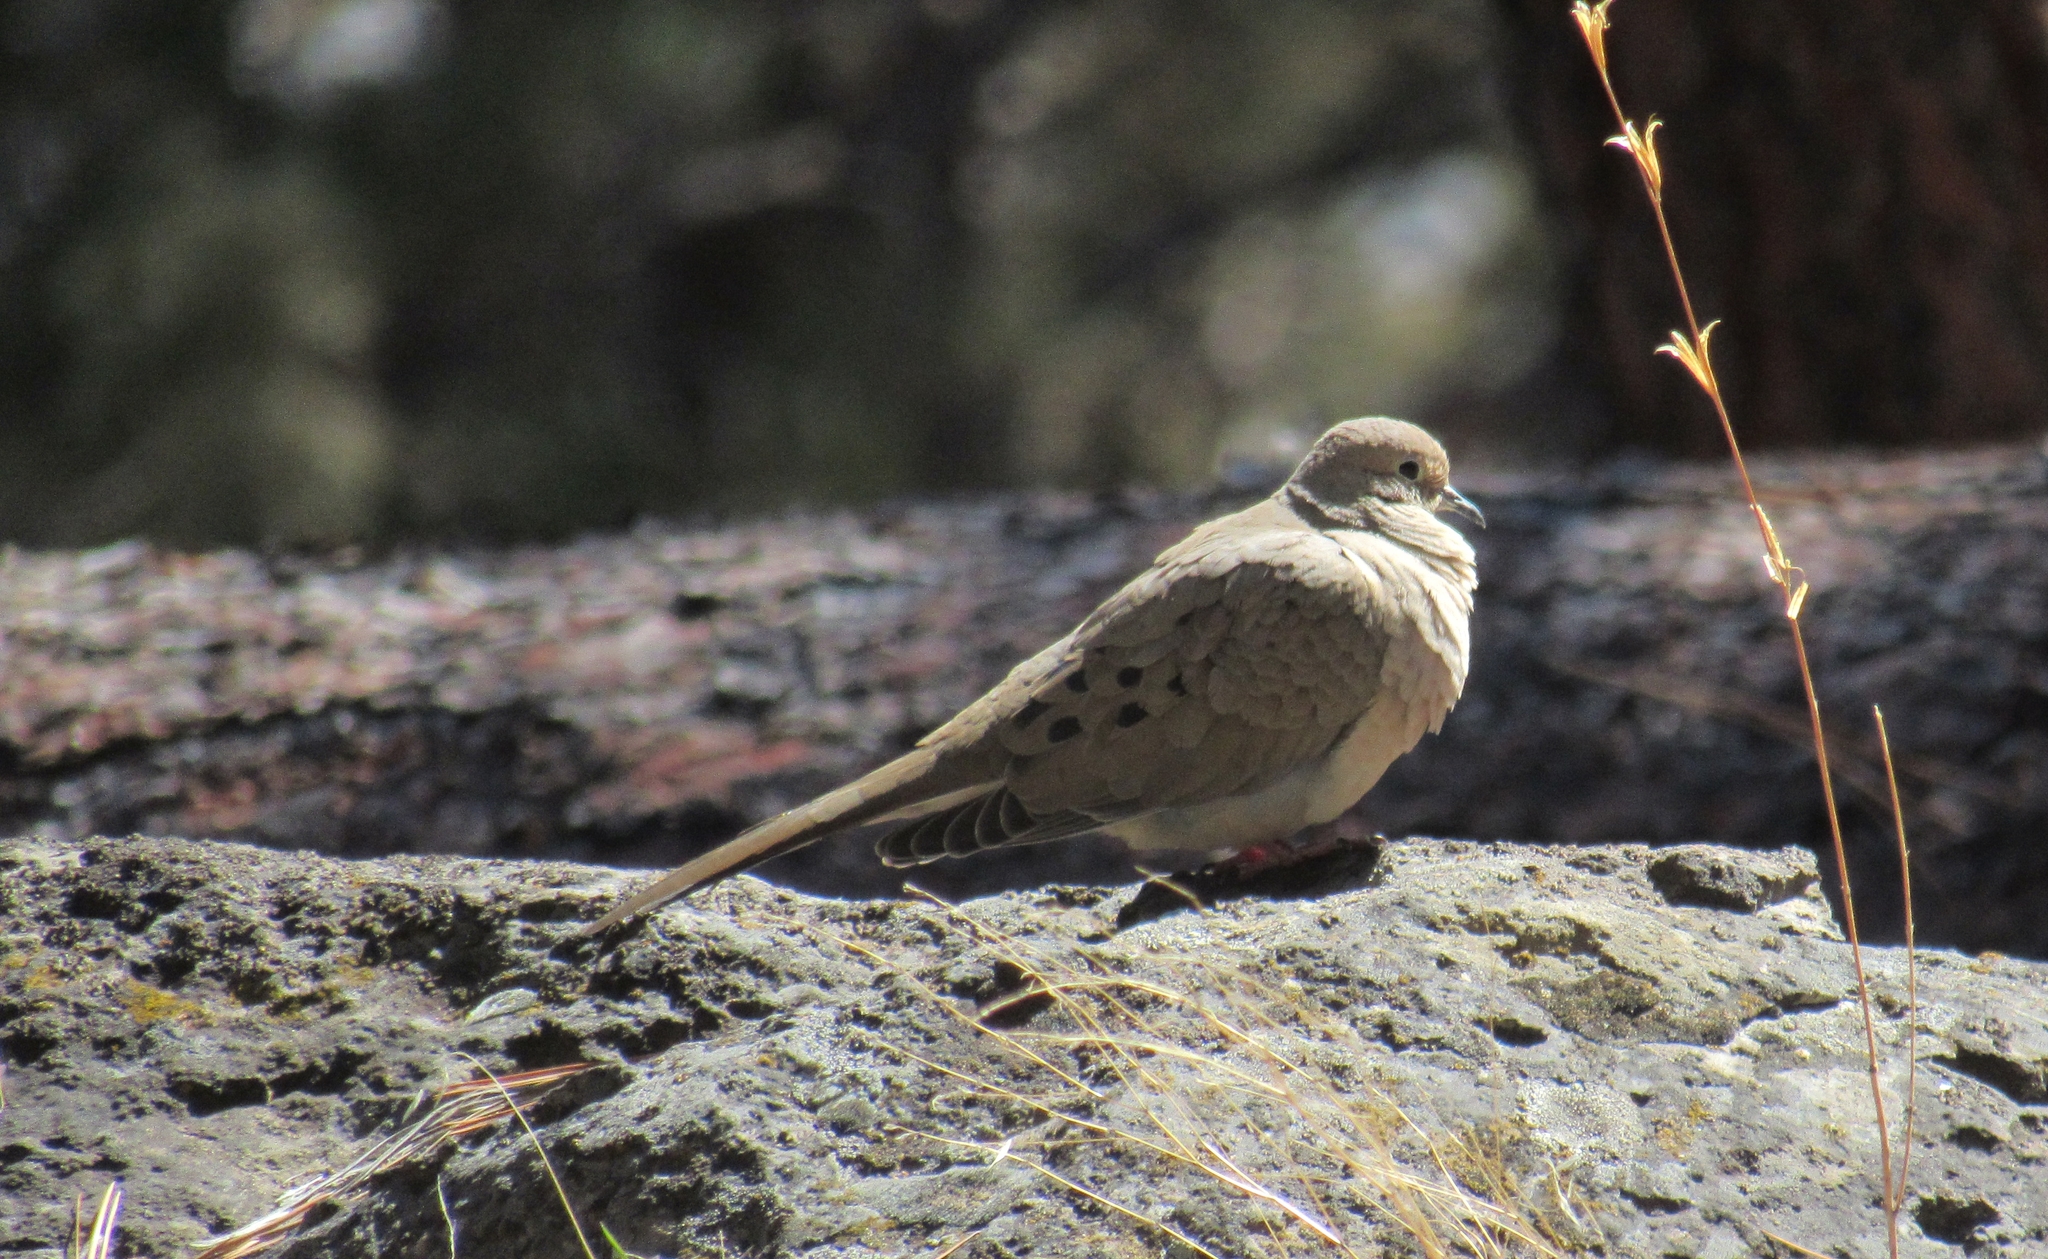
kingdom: Animalia
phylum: Chordata
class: Aves
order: Columbiformes
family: Columbidae
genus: Zenaida
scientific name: Zenaida macroura
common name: Mourning dove
